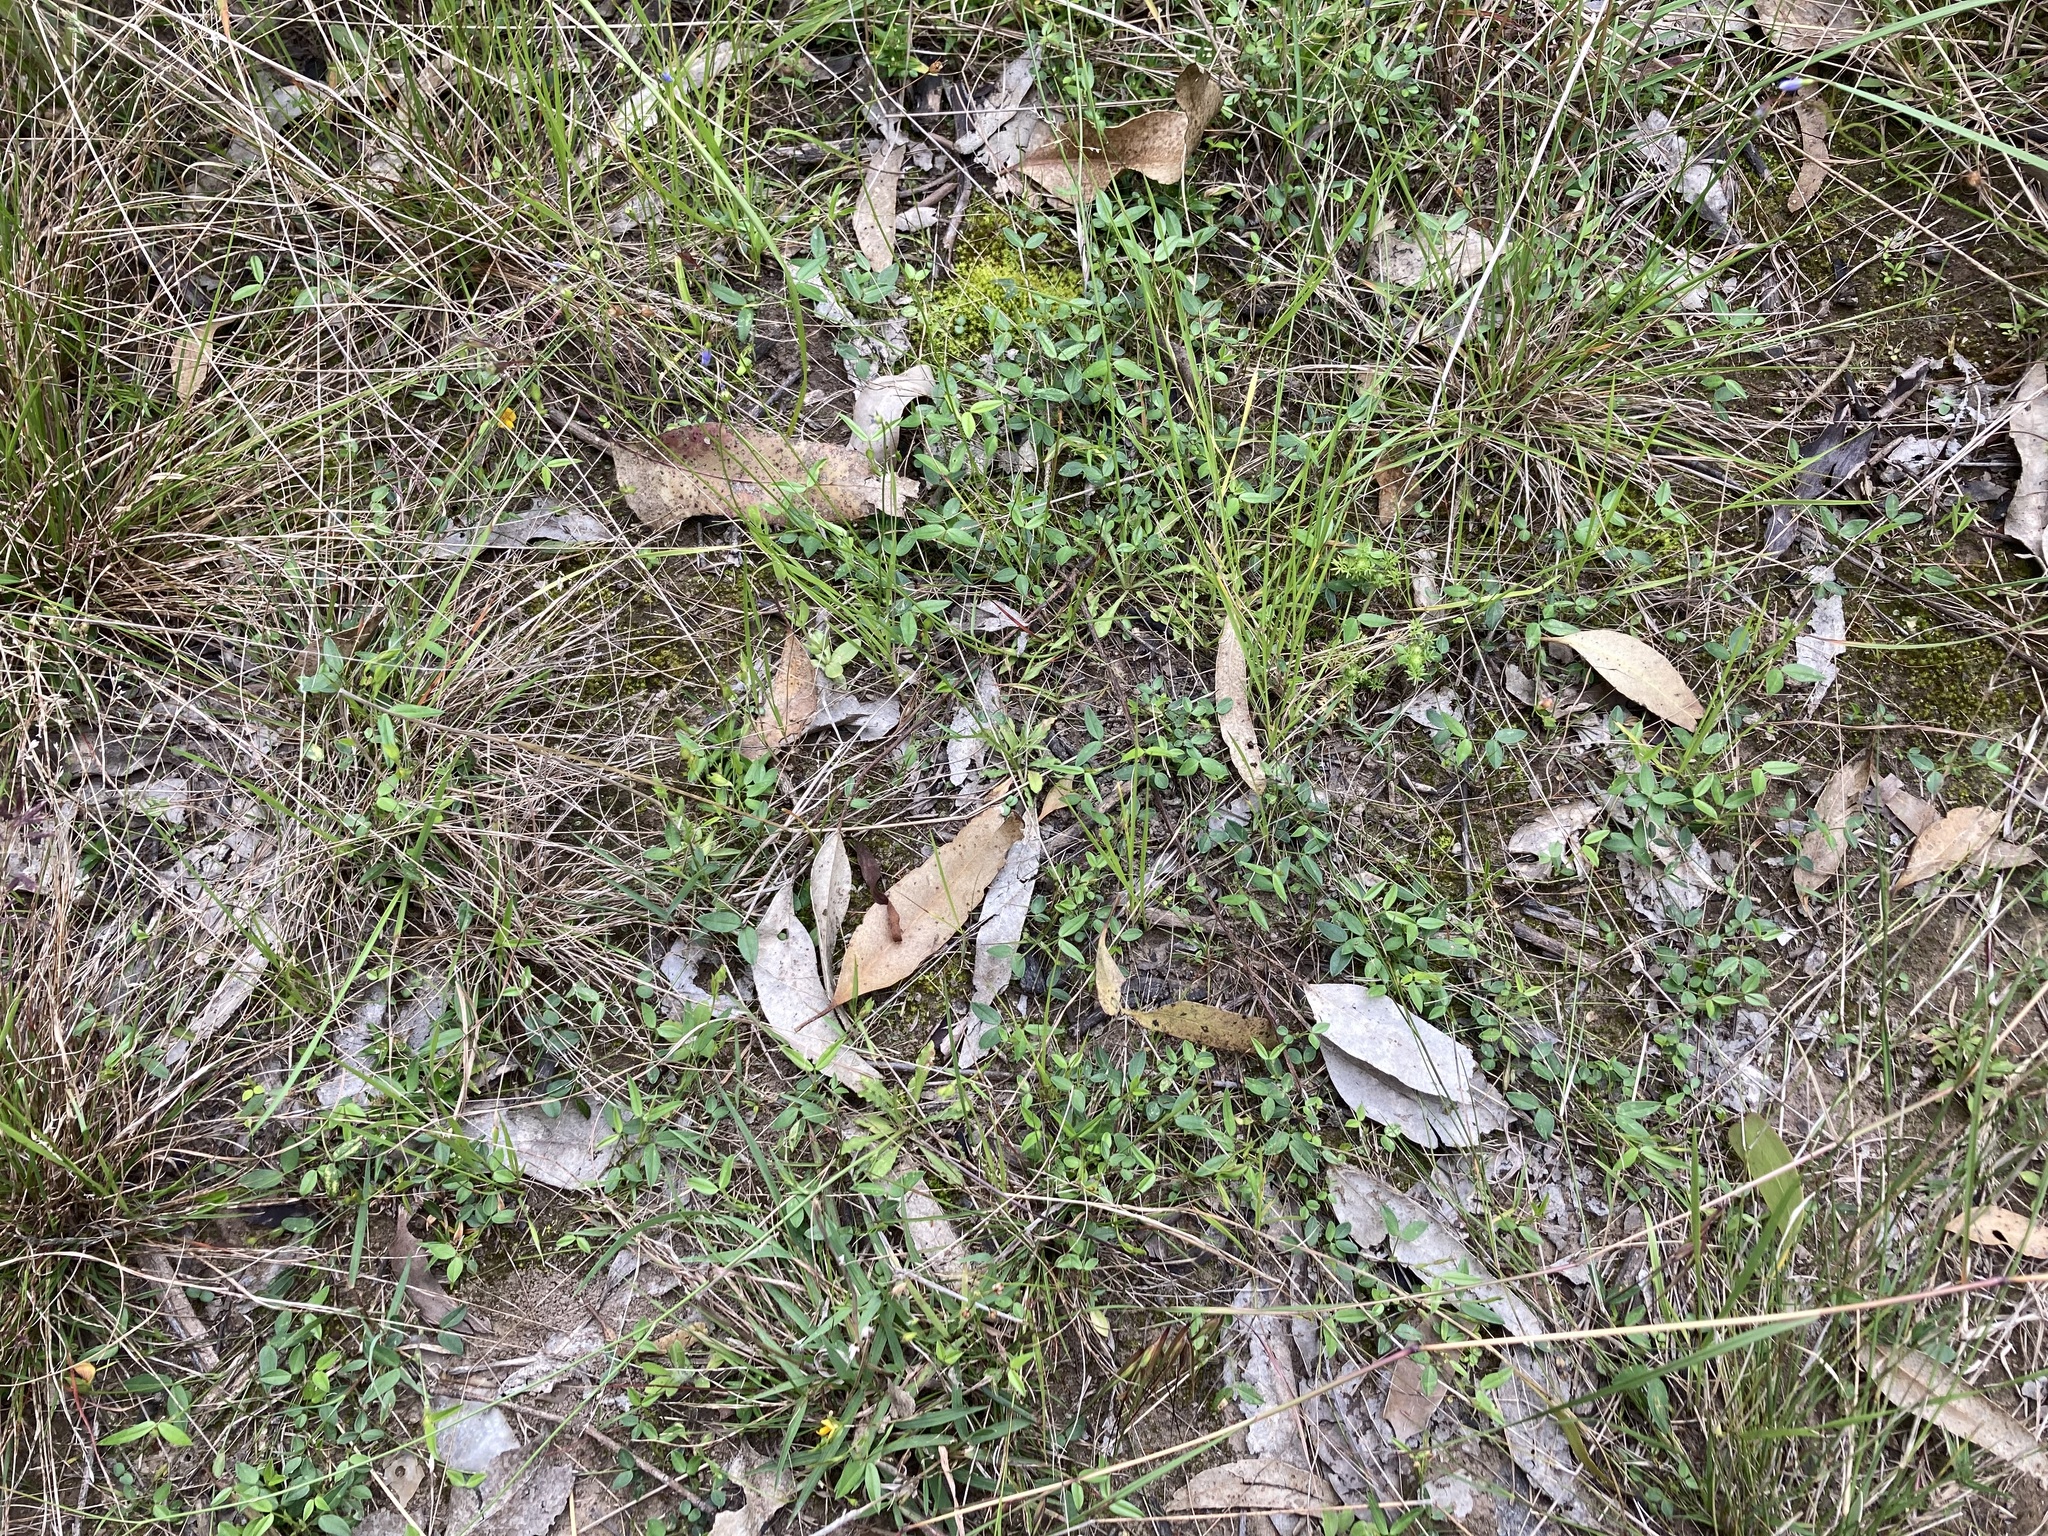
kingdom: Plantae
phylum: Tracheophyta
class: Magnoliopsida
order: Fabales
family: Fabaceae
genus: Zornia
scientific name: Zornia dyctiocarpa
